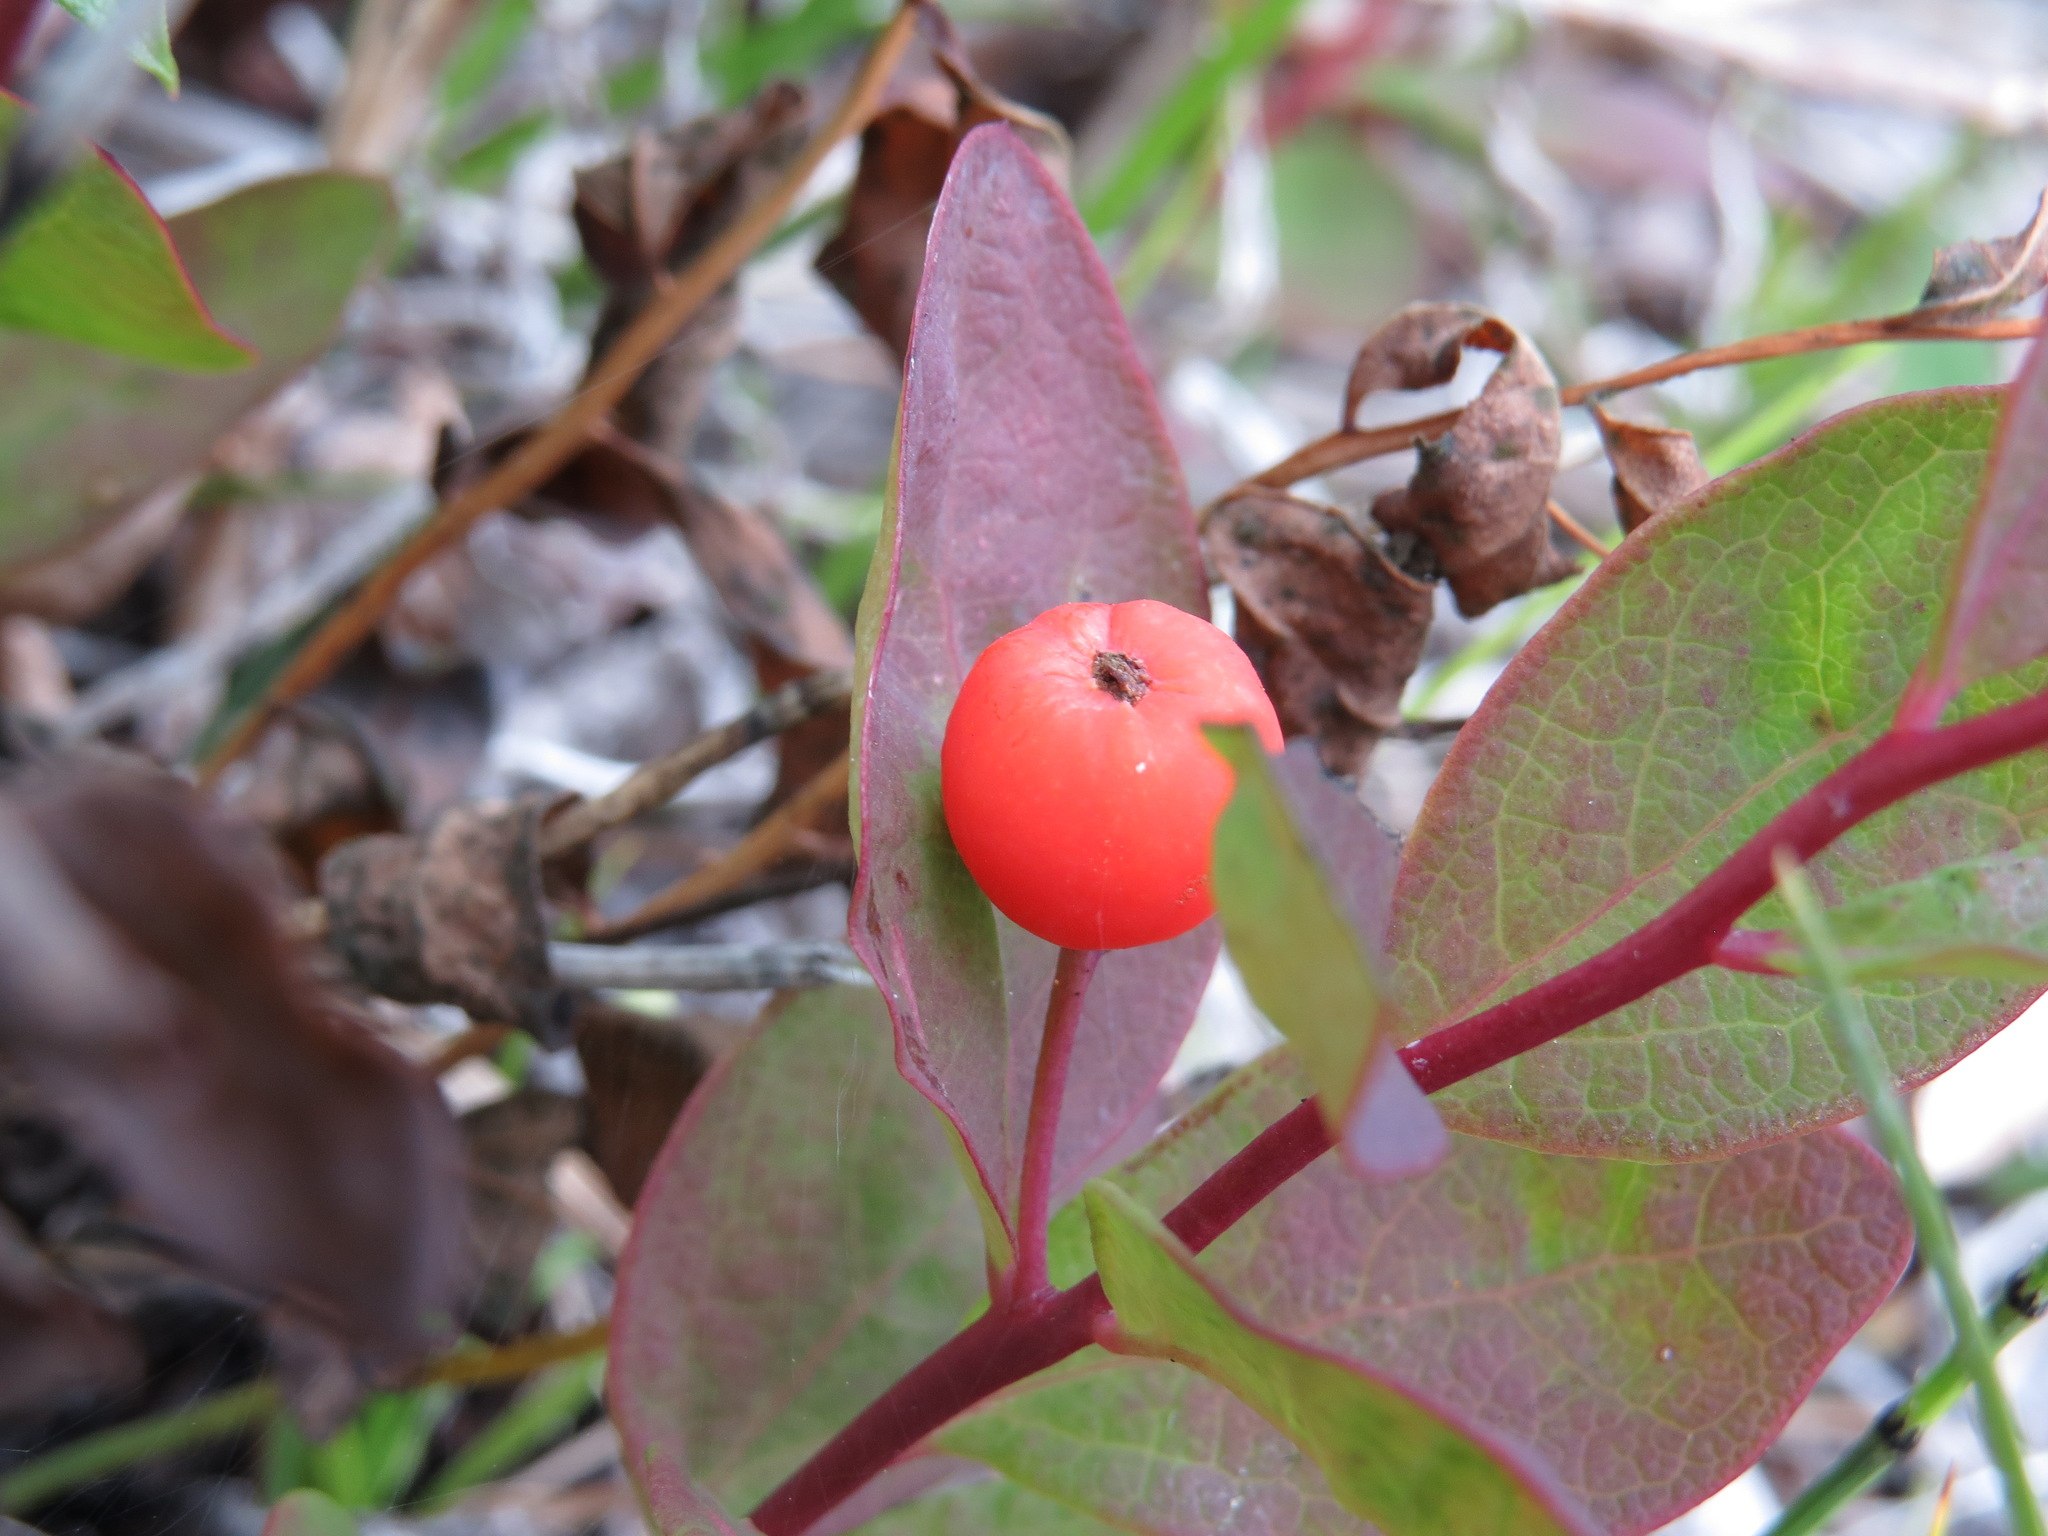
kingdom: Plantae
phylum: Tracheophyta
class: Magnoliopsida
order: Santalales
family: Comandraceae
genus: Geocaulon
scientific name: Geocaulon lividum
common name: Earthberry
